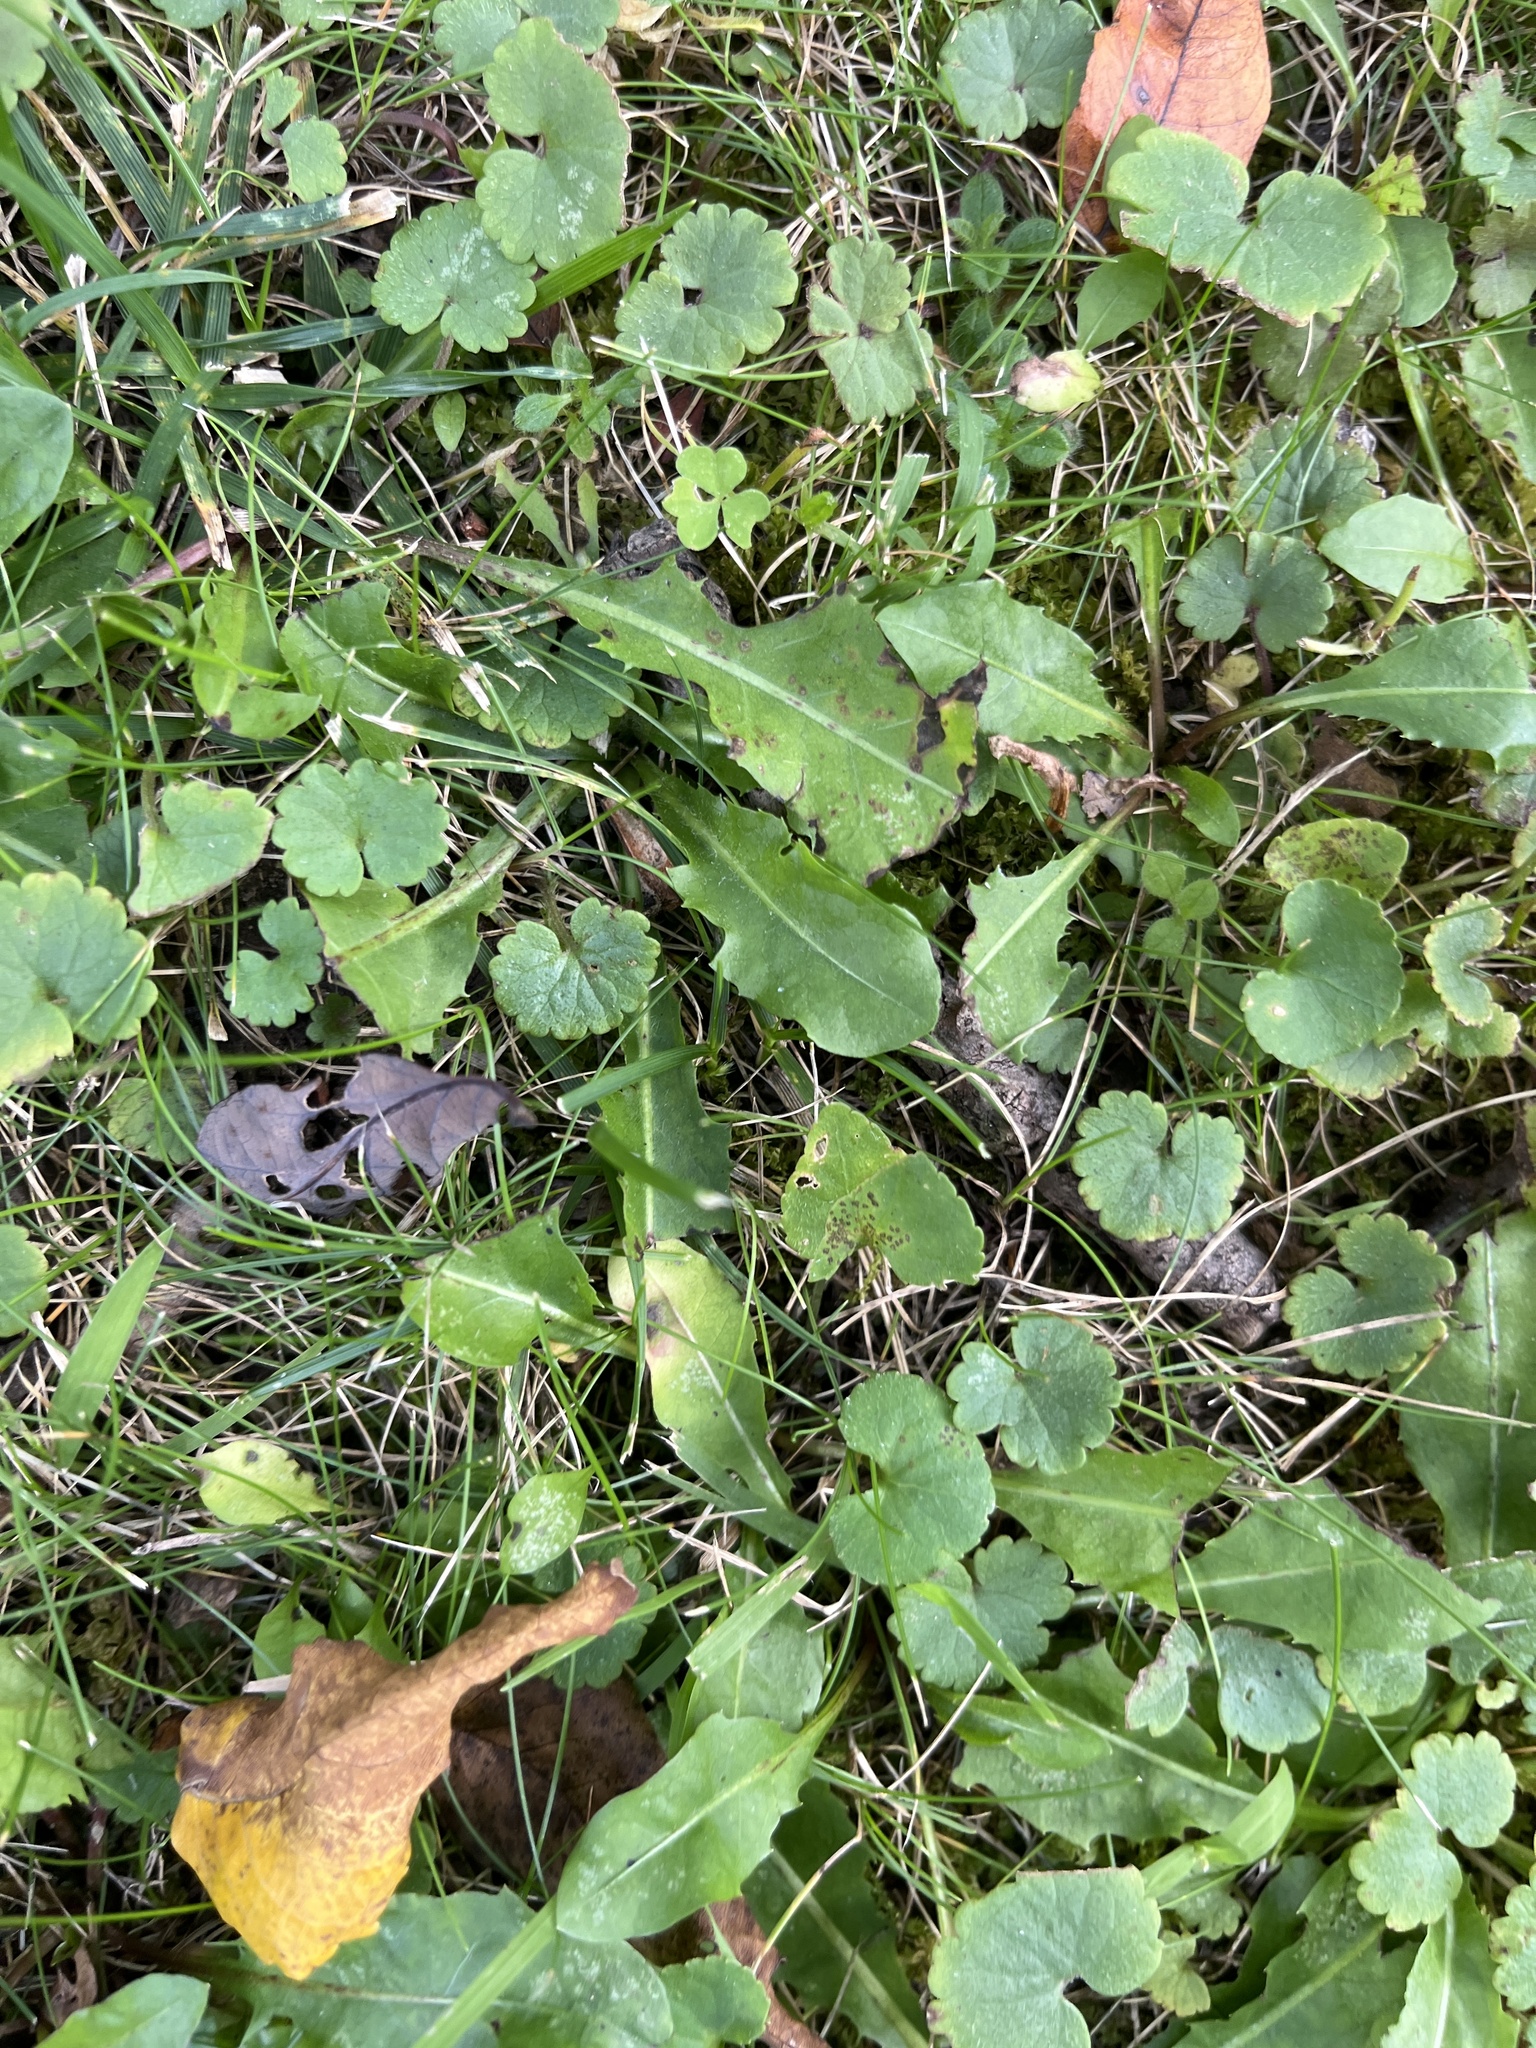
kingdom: Plantae
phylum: Tracheophyta
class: Magnoliopsida
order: Lamiales
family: Lamiaceae
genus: Glechoma
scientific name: Glechoma hederacea
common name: Ground ivy
